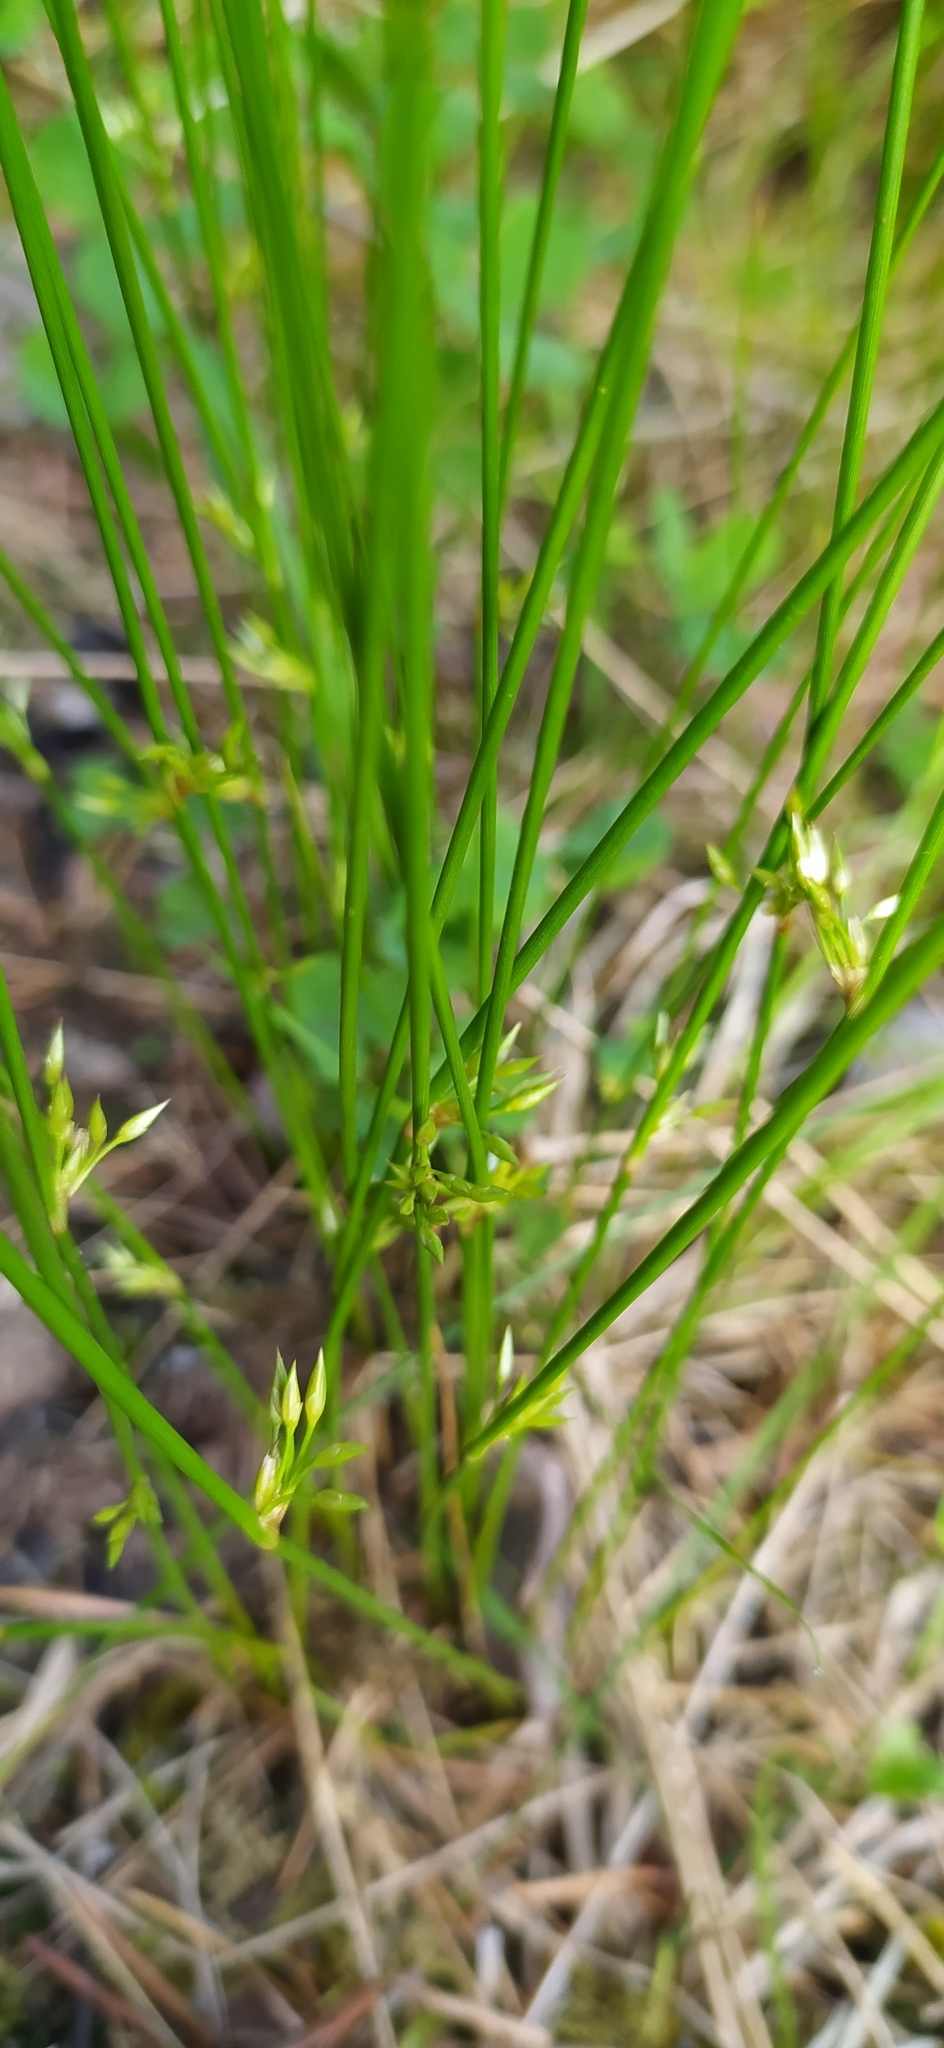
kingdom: Plantae
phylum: Tracheophyta
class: Liliopsida
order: Poales
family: Juncaceae
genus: Juncus
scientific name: Juncus filiformis
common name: Thread rush
